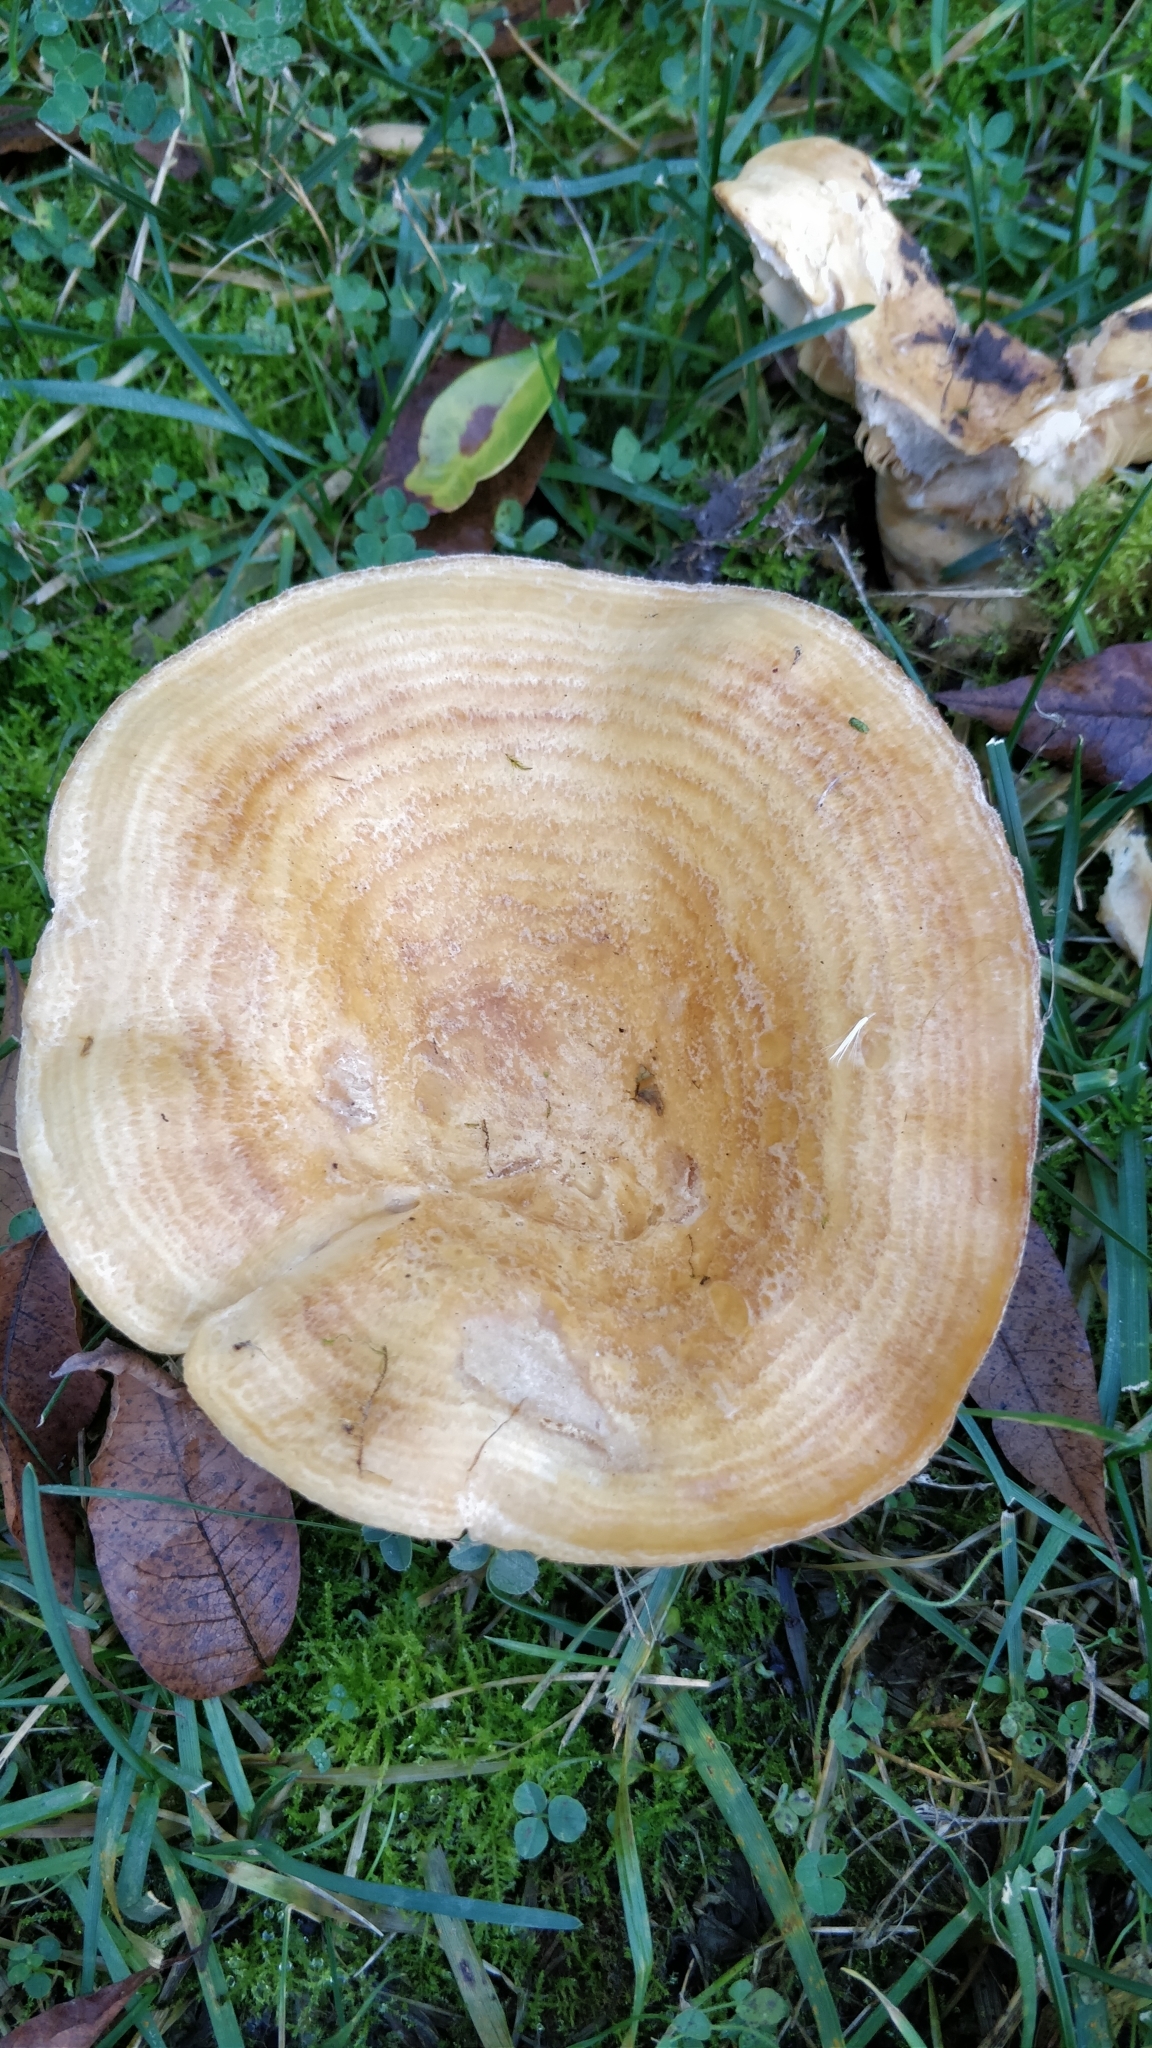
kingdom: Fungi
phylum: Basidiomycota
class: Agaricomycetes
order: Russulales
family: Russulaceae
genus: Lactarius
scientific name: Lactarius alnicola
